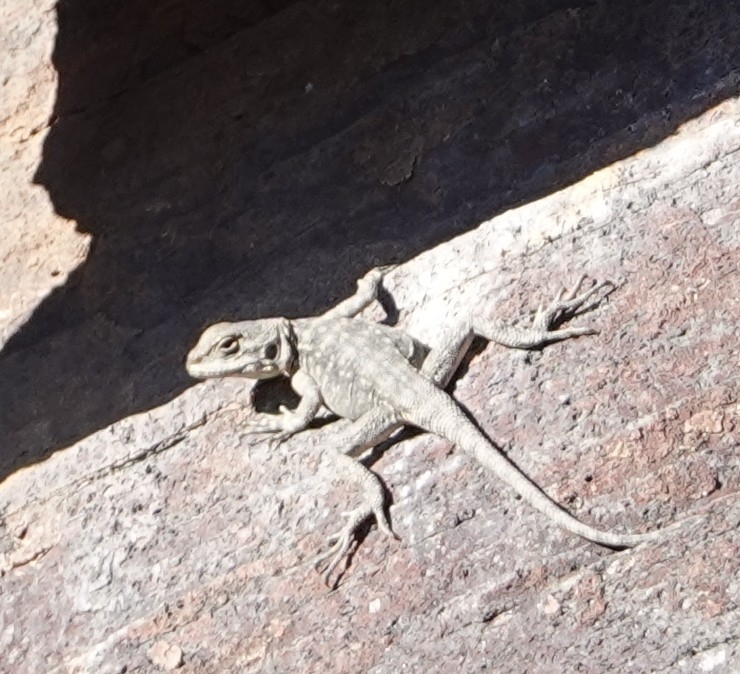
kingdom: Animalia
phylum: Chordata
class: Squamata
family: Agamidae
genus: Paralaudakia
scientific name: Paralaudakia caucasia
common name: Caucasian agama
